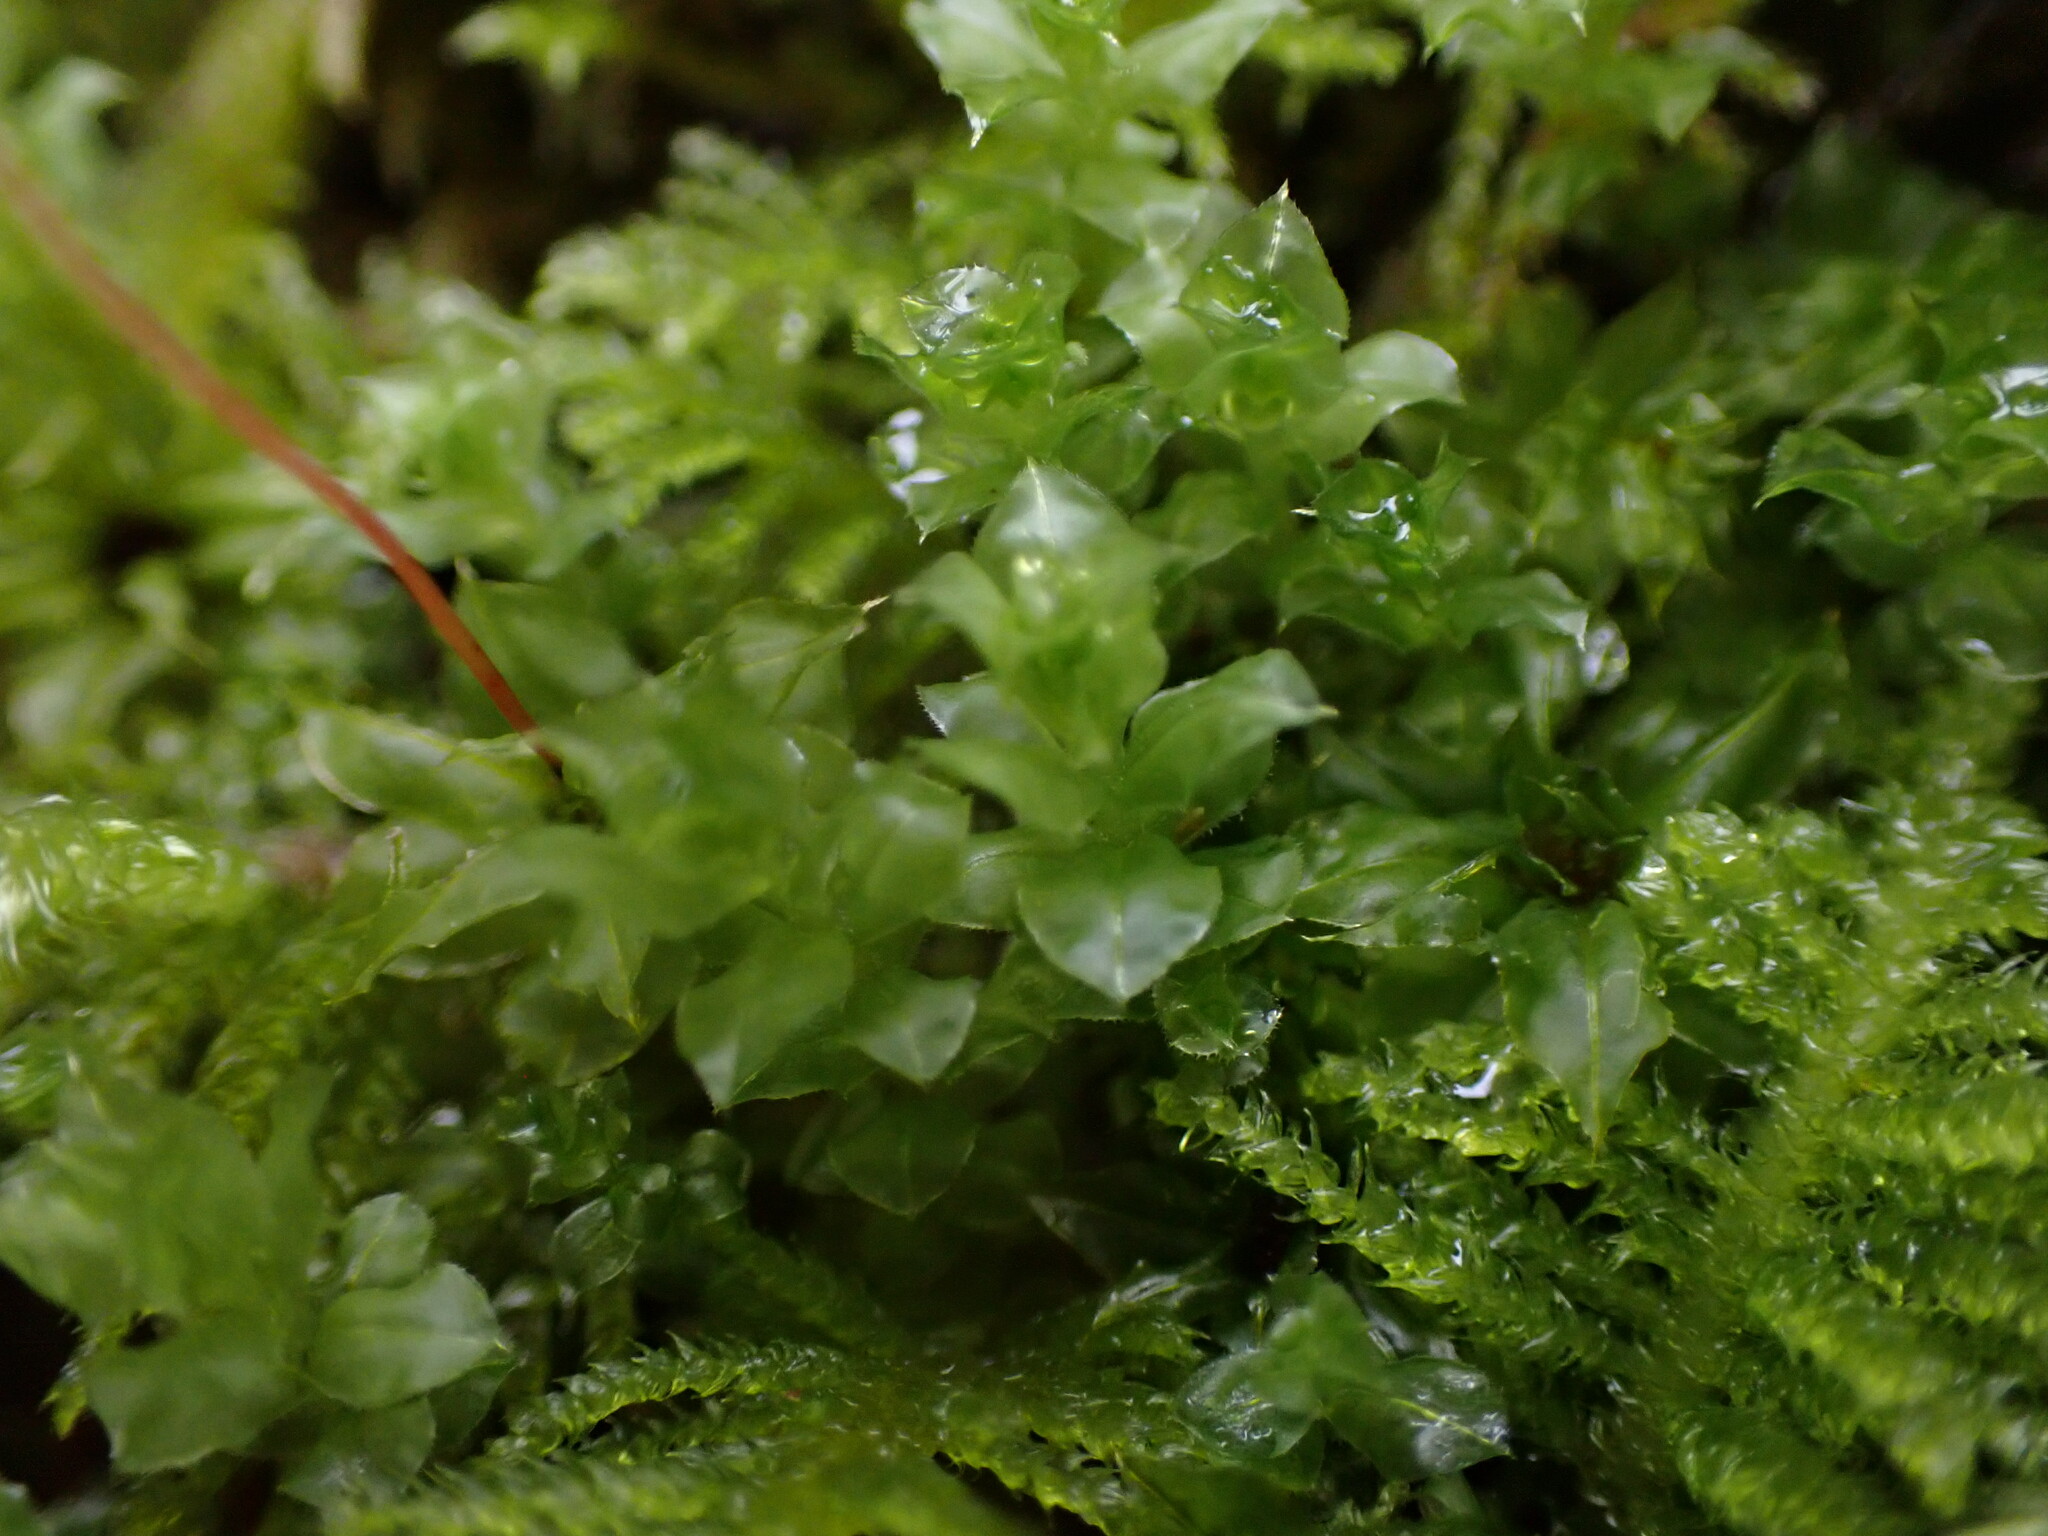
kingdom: Plantae
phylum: Bryophyta
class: Bryopsida
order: Bryales
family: Mniaceae
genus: Plagiomnium
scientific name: Plagiomnium venustum
